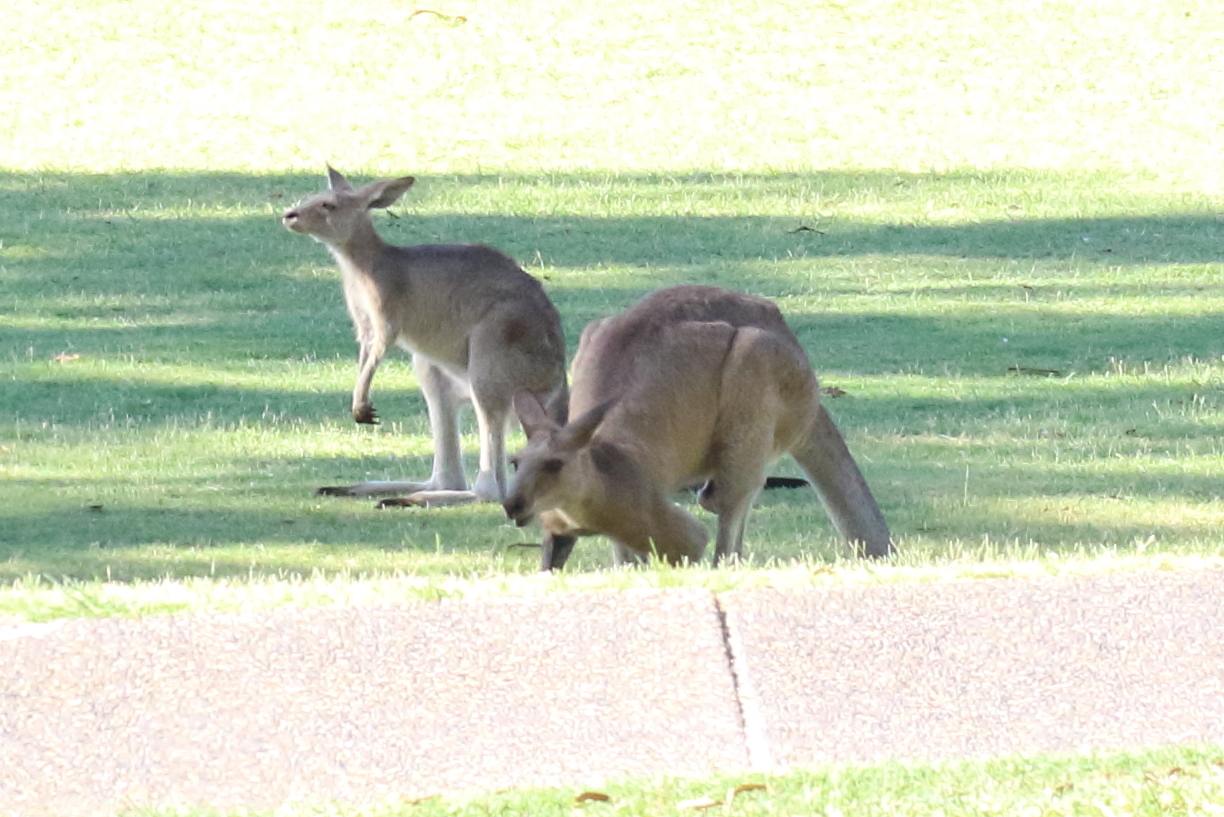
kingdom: Animalia
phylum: Chordata
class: Mammalia
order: Diprotodontia
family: Macropodidae
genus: Macropus
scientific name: Macropus giganteus
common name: Eastern grey kangaroo
